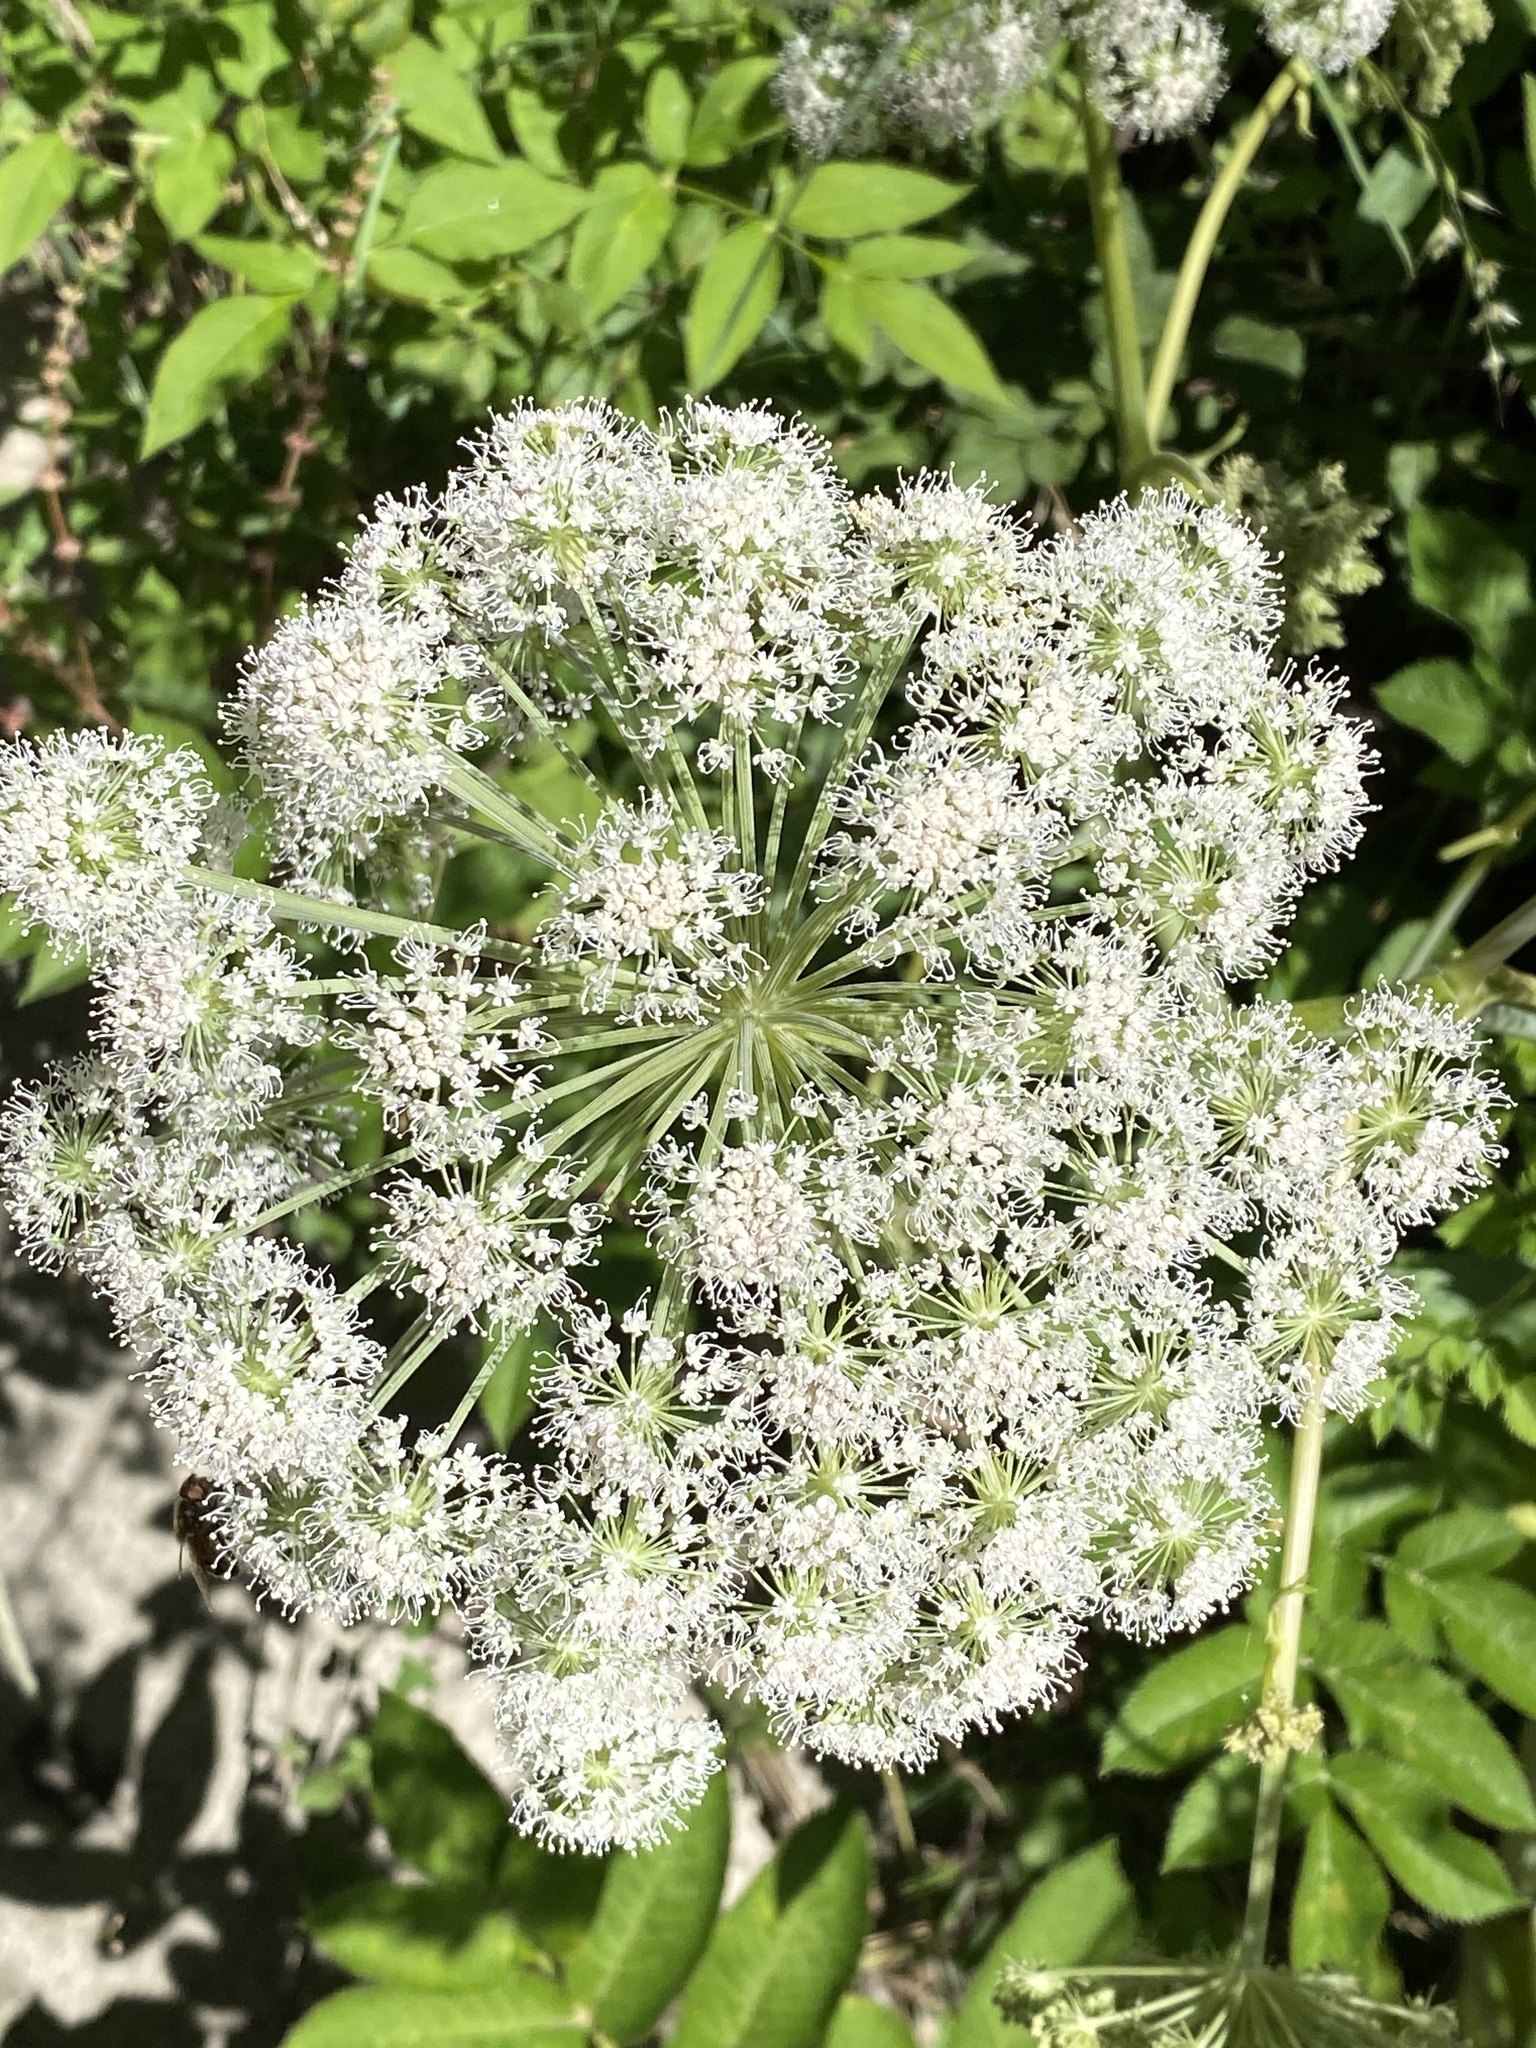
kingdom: Plantae
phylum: Tracheophyta
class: Magnoliopsida
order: Apiales
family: Apiaceae
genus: Angelica
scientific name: Angelica sylvestris
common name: Wild angelica
